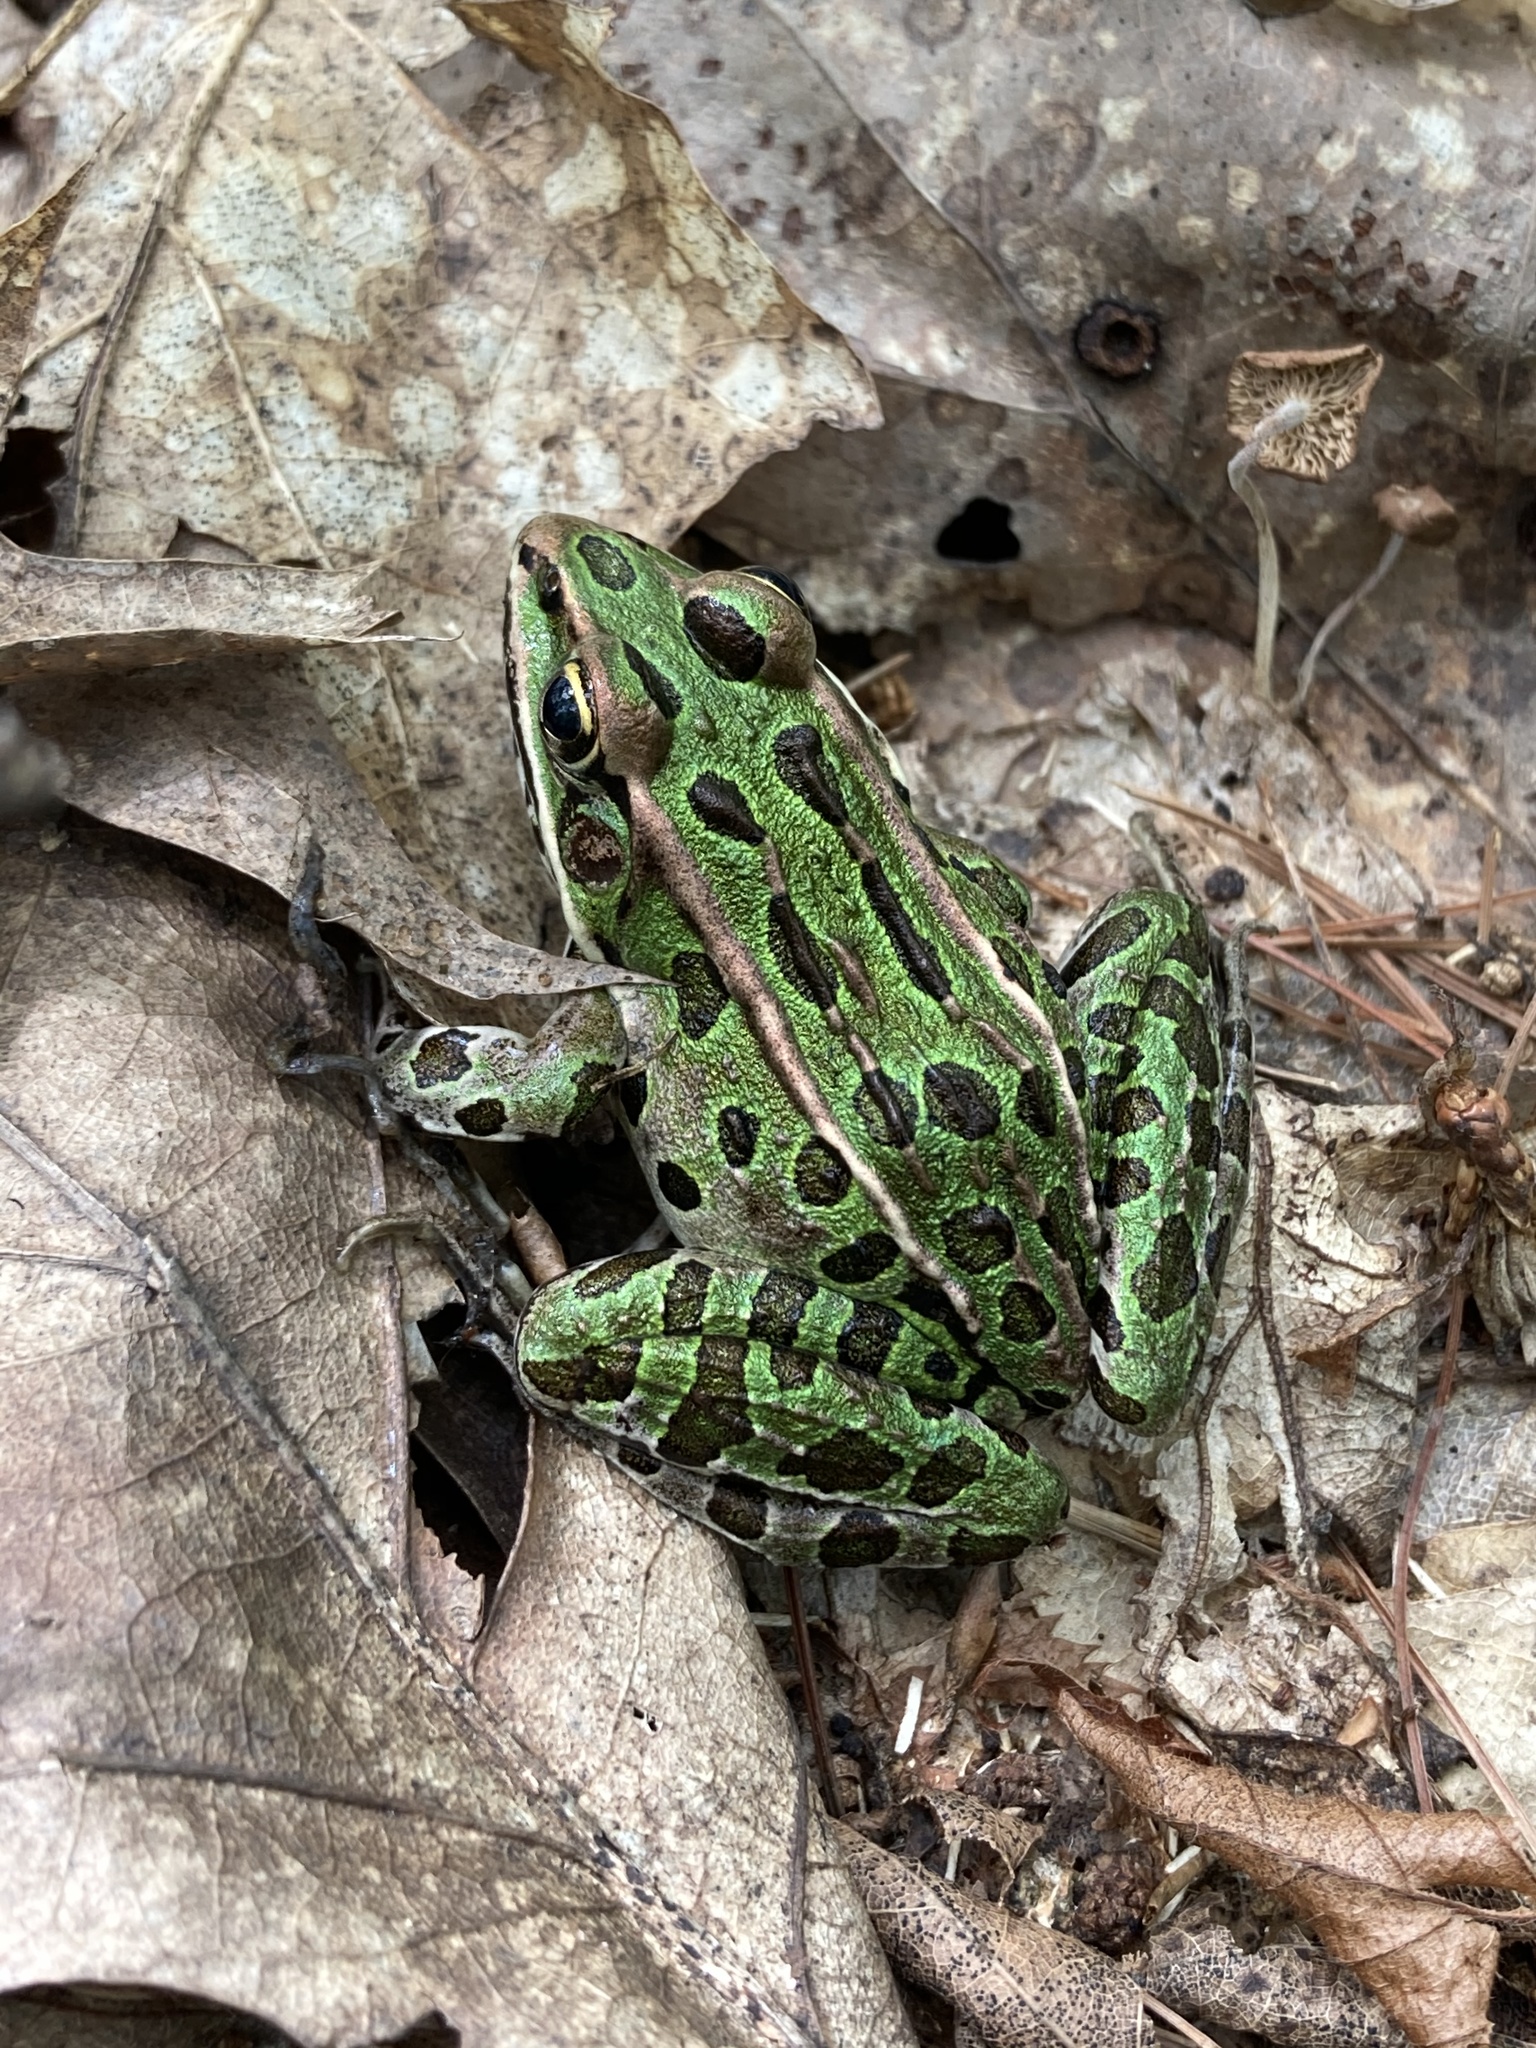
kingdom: Animalia
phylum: Chordata
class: Amphibia
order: Anura
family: Ranidae
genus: Lithobates
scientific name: Lithobates pipiens
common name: Northern leopard frog
